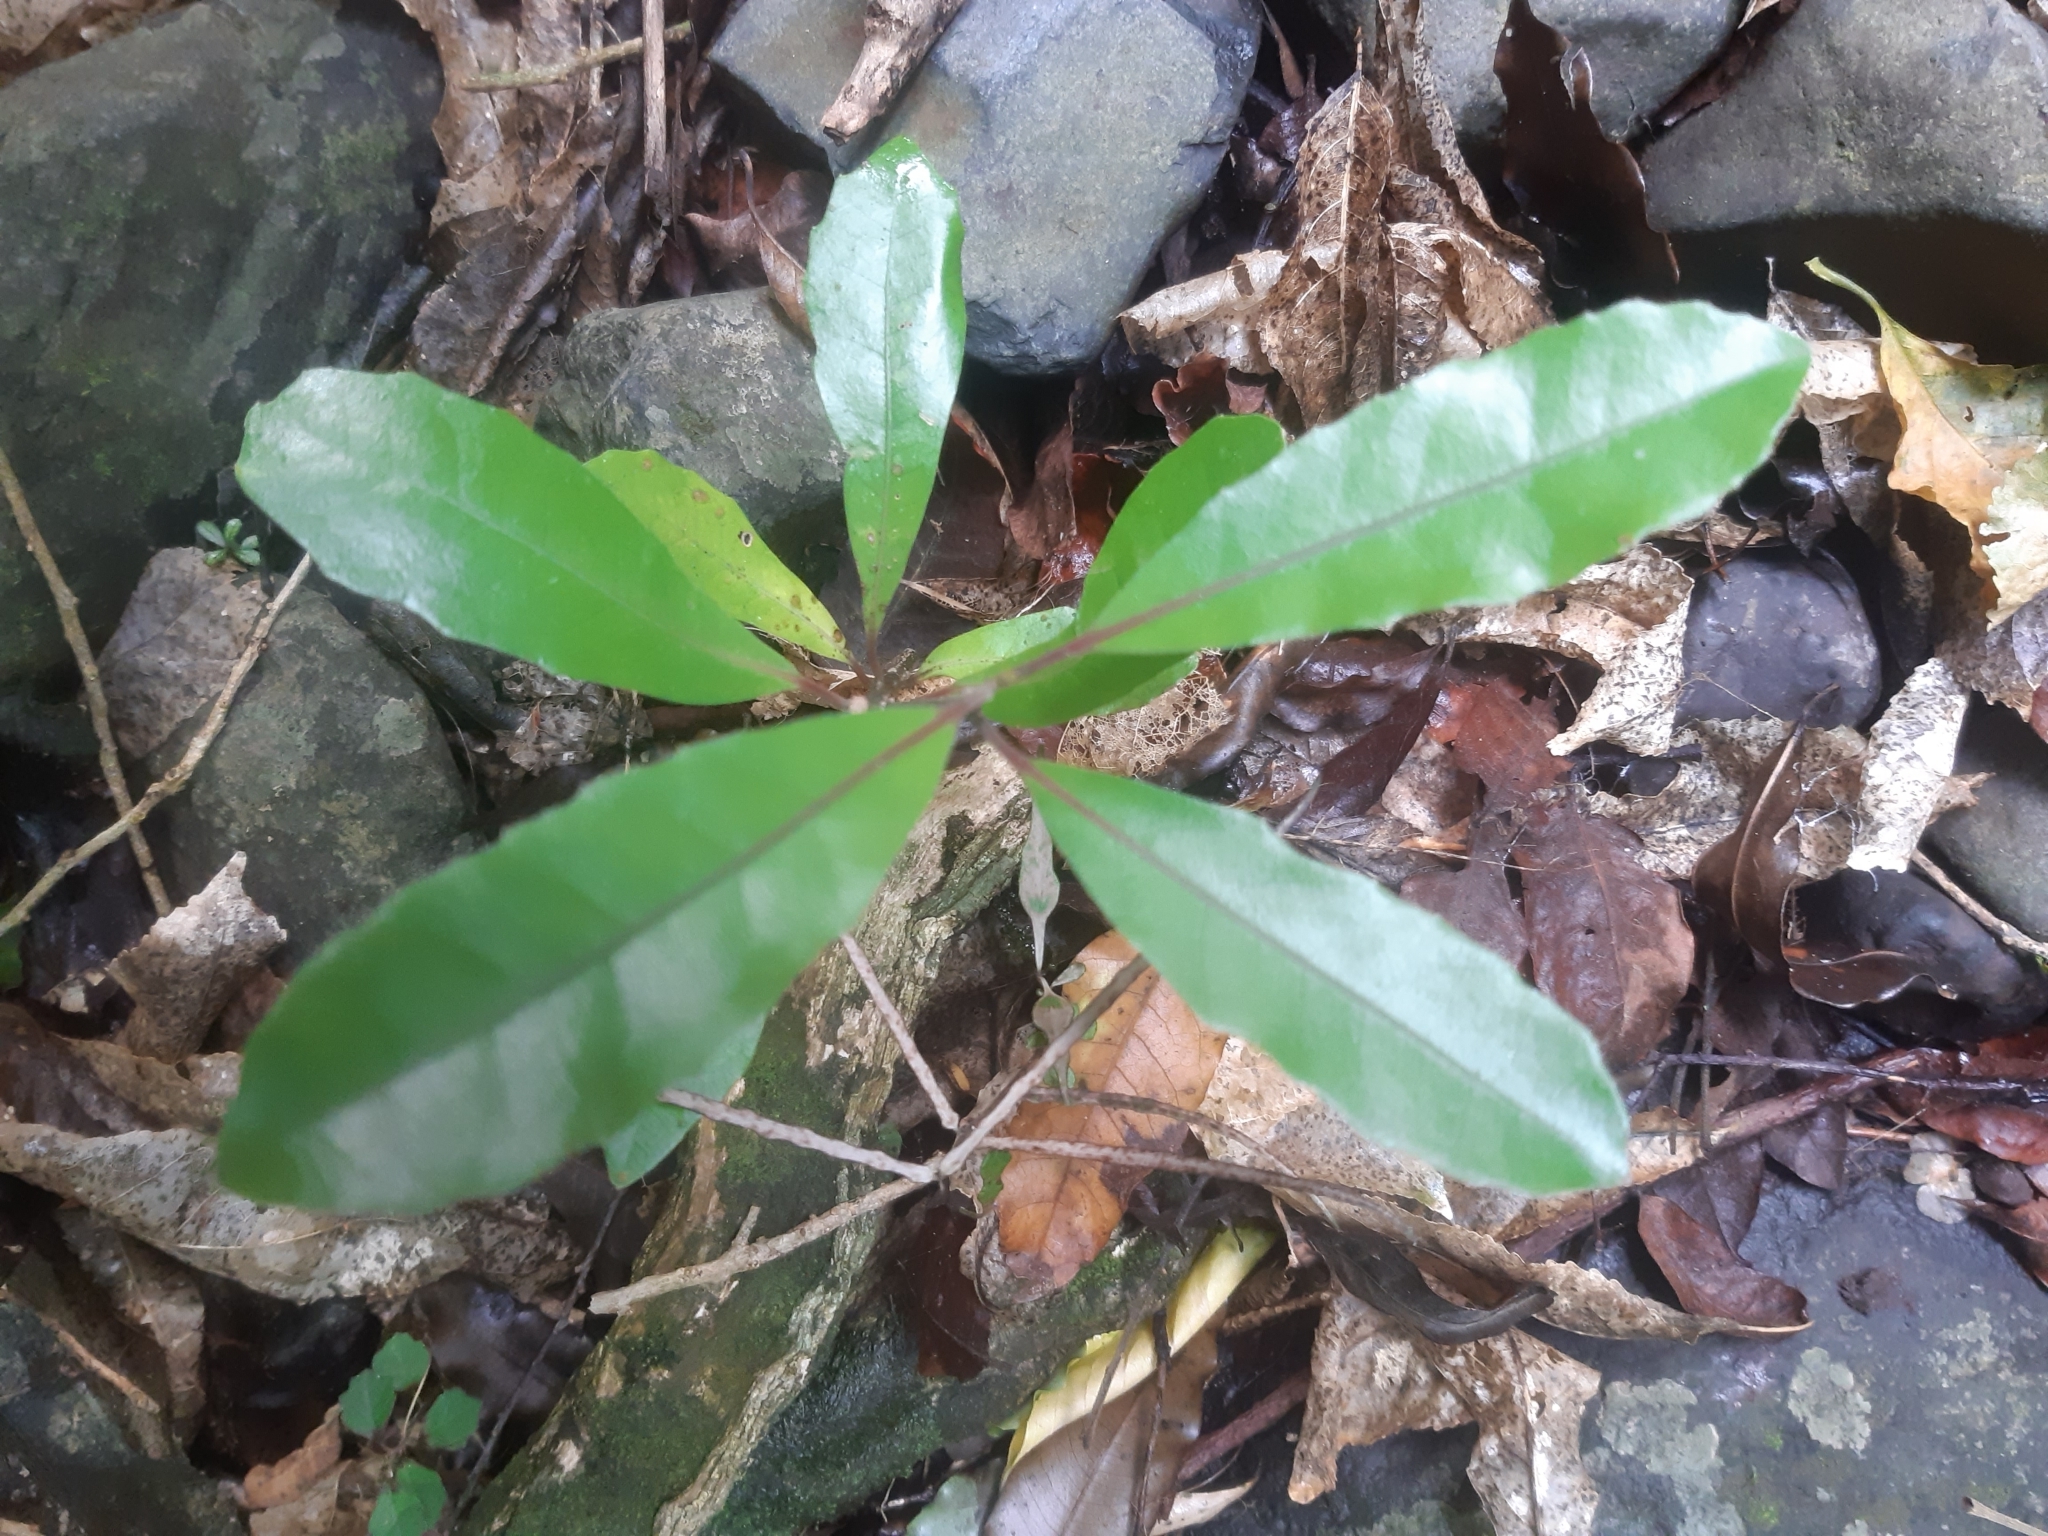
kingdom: Plantae
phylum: Tracheophyta
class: Magnoliopsida
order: Laurales
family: Monimiaceae
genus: Hedycarya
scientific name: Hedycarya arborea
